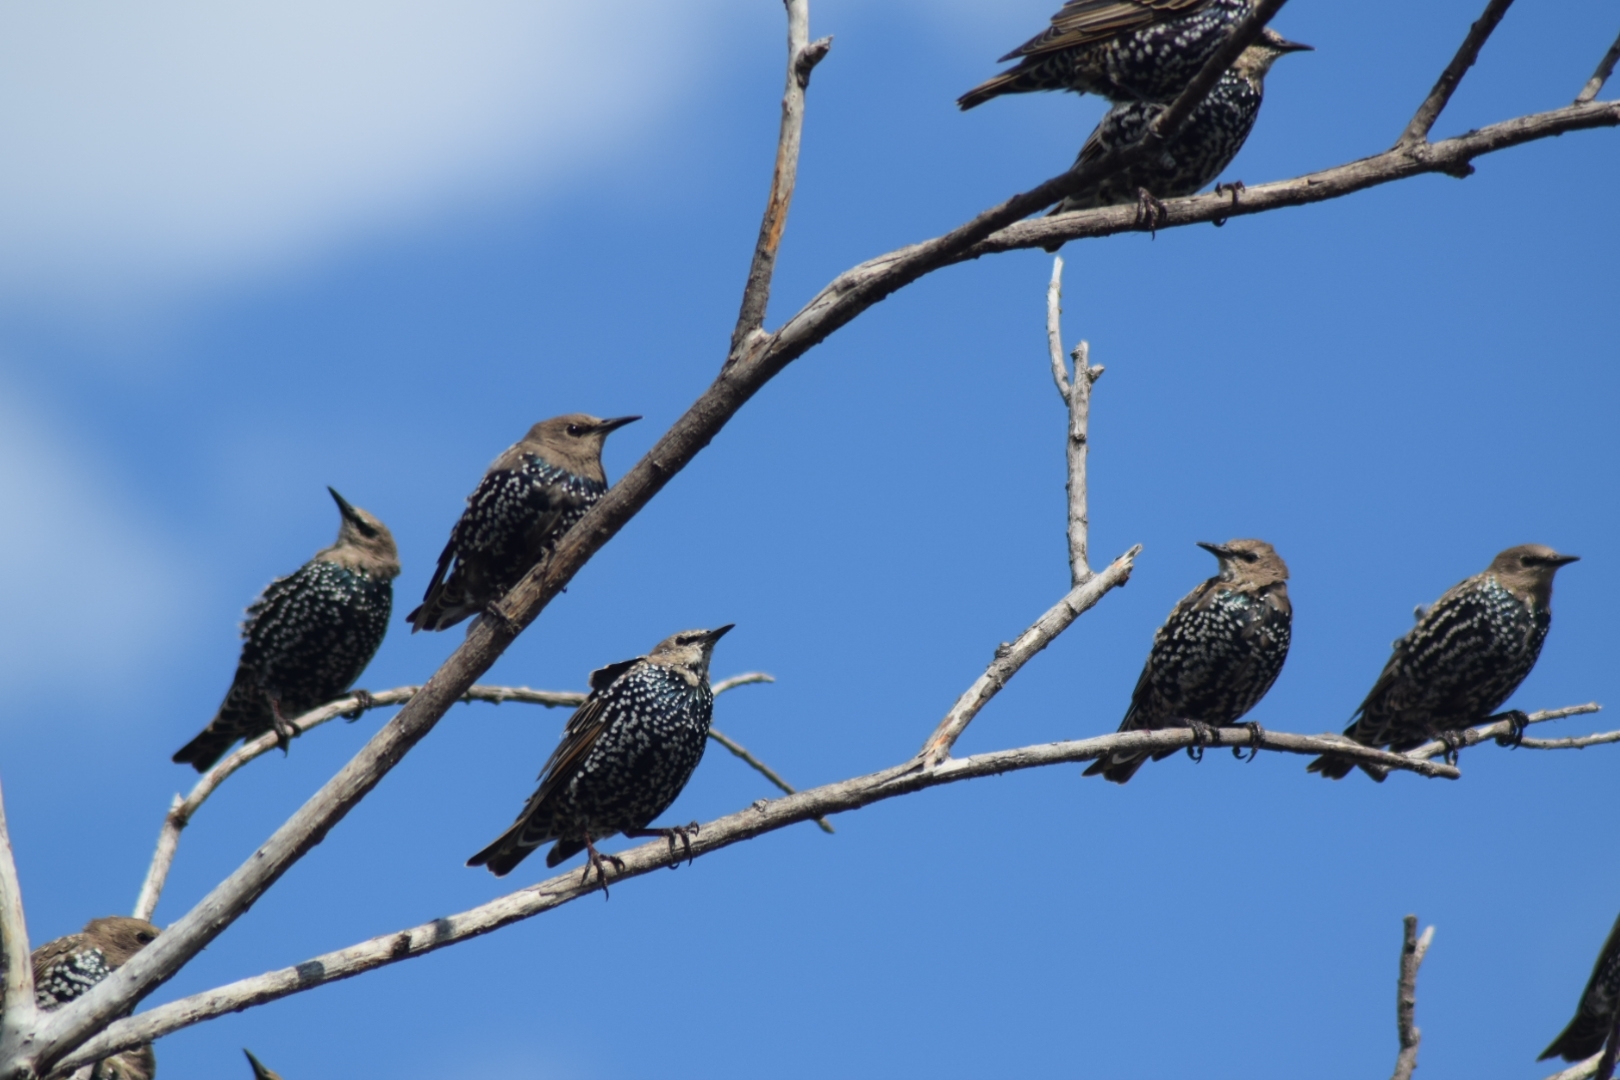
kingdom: Animalia
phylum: Chordata
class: Aves
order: Passeriformes
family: Sturnidae
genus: Sturnus
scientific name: Sturnus vulgaris
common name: Common starling
